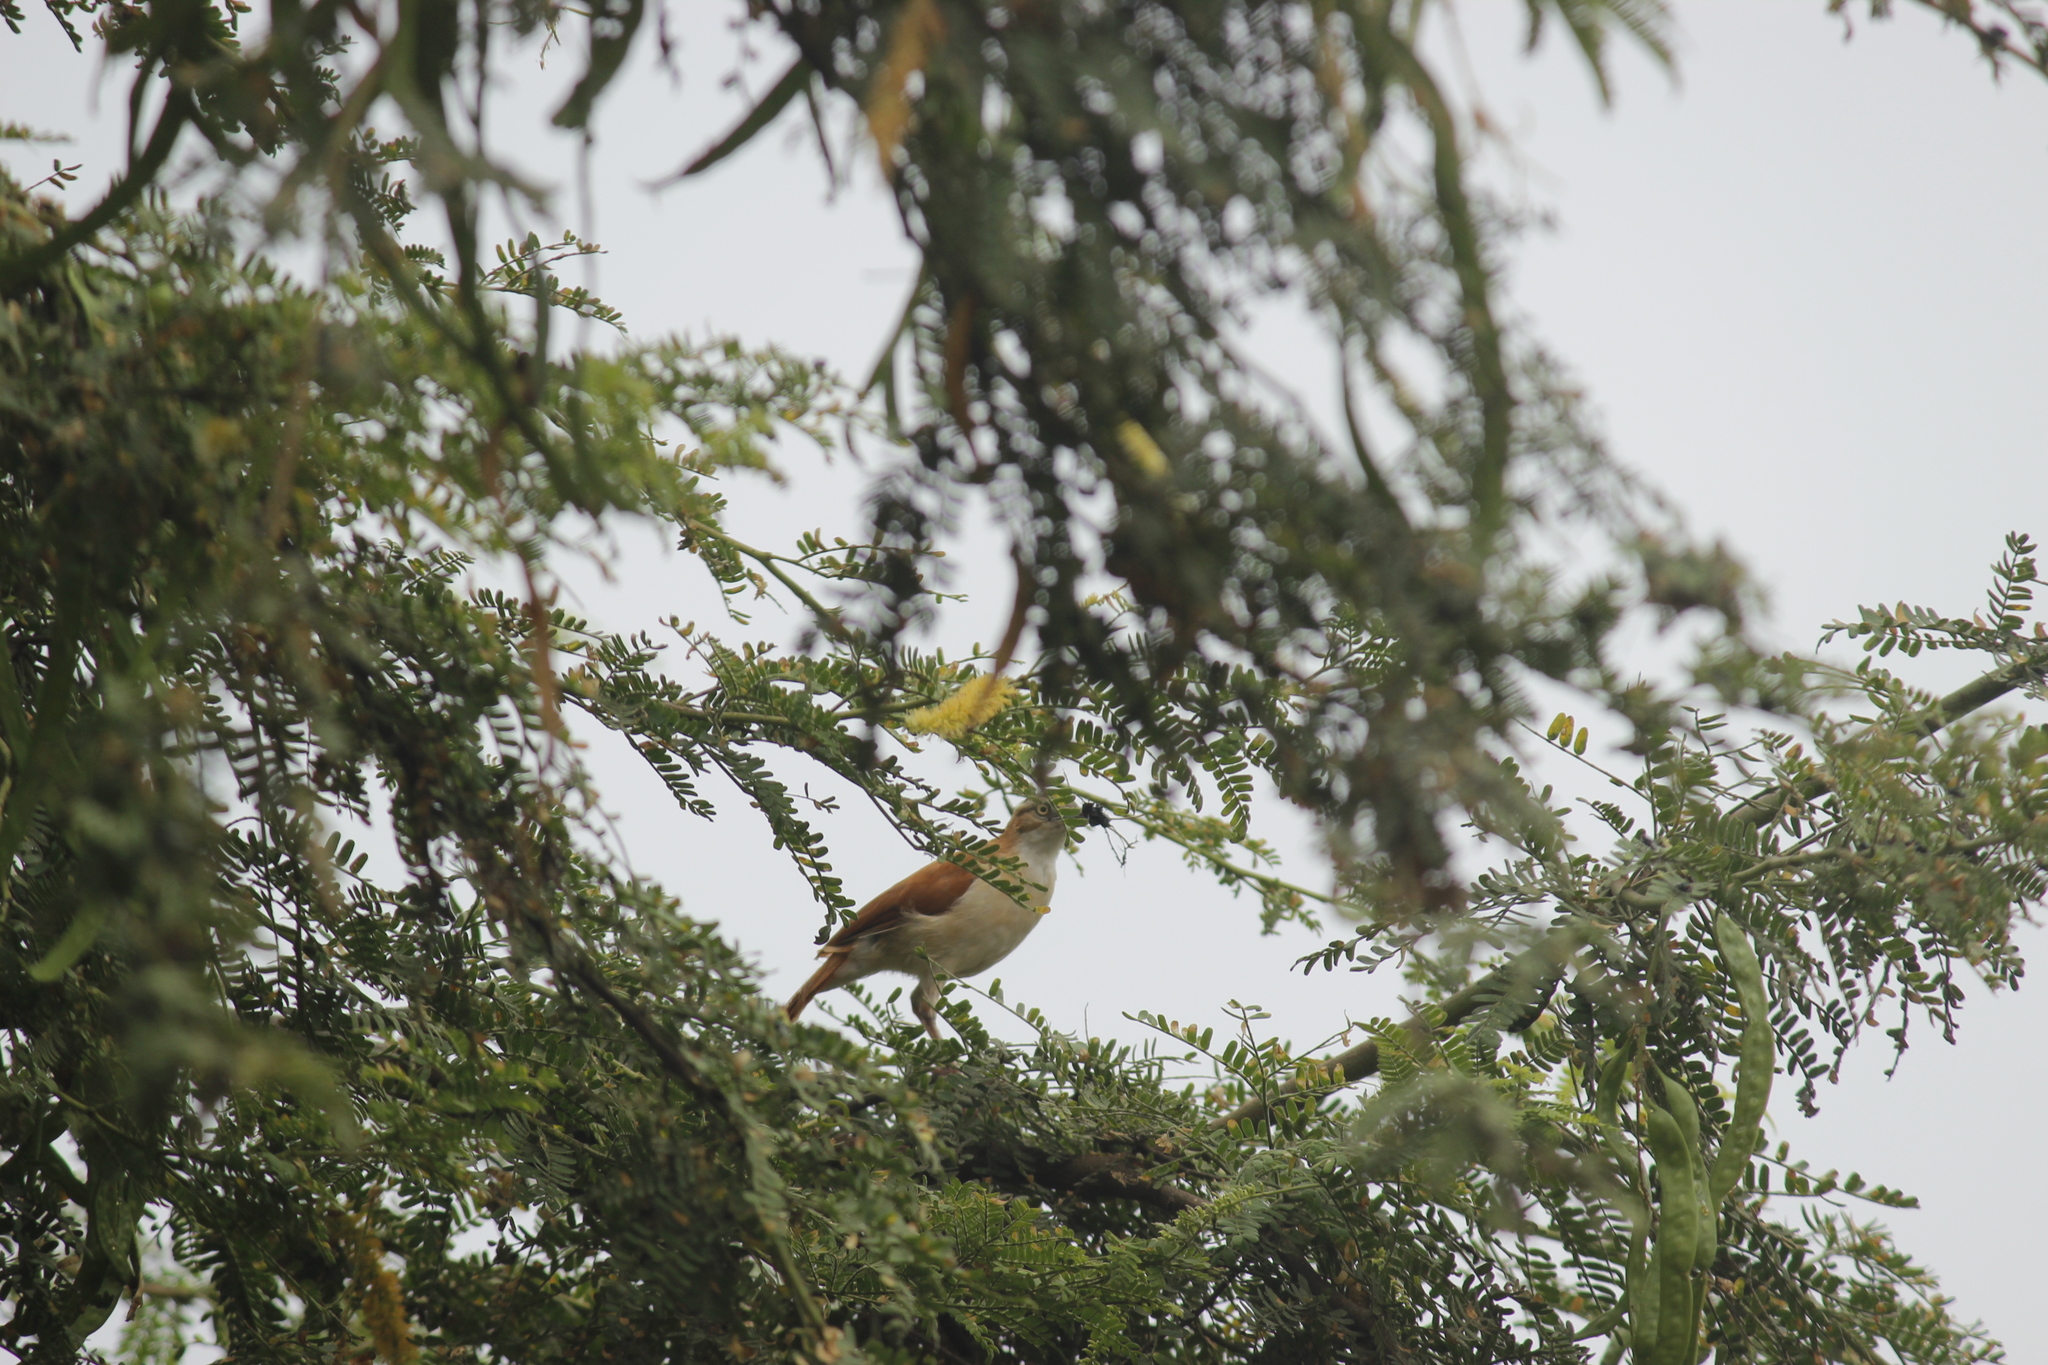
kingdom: Animalia
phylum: Chordata
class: Aves
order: Passeriformes
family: Furnariidae
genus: Furnarius
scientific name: Furnarius leucopus
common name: Pale-legged hornero
